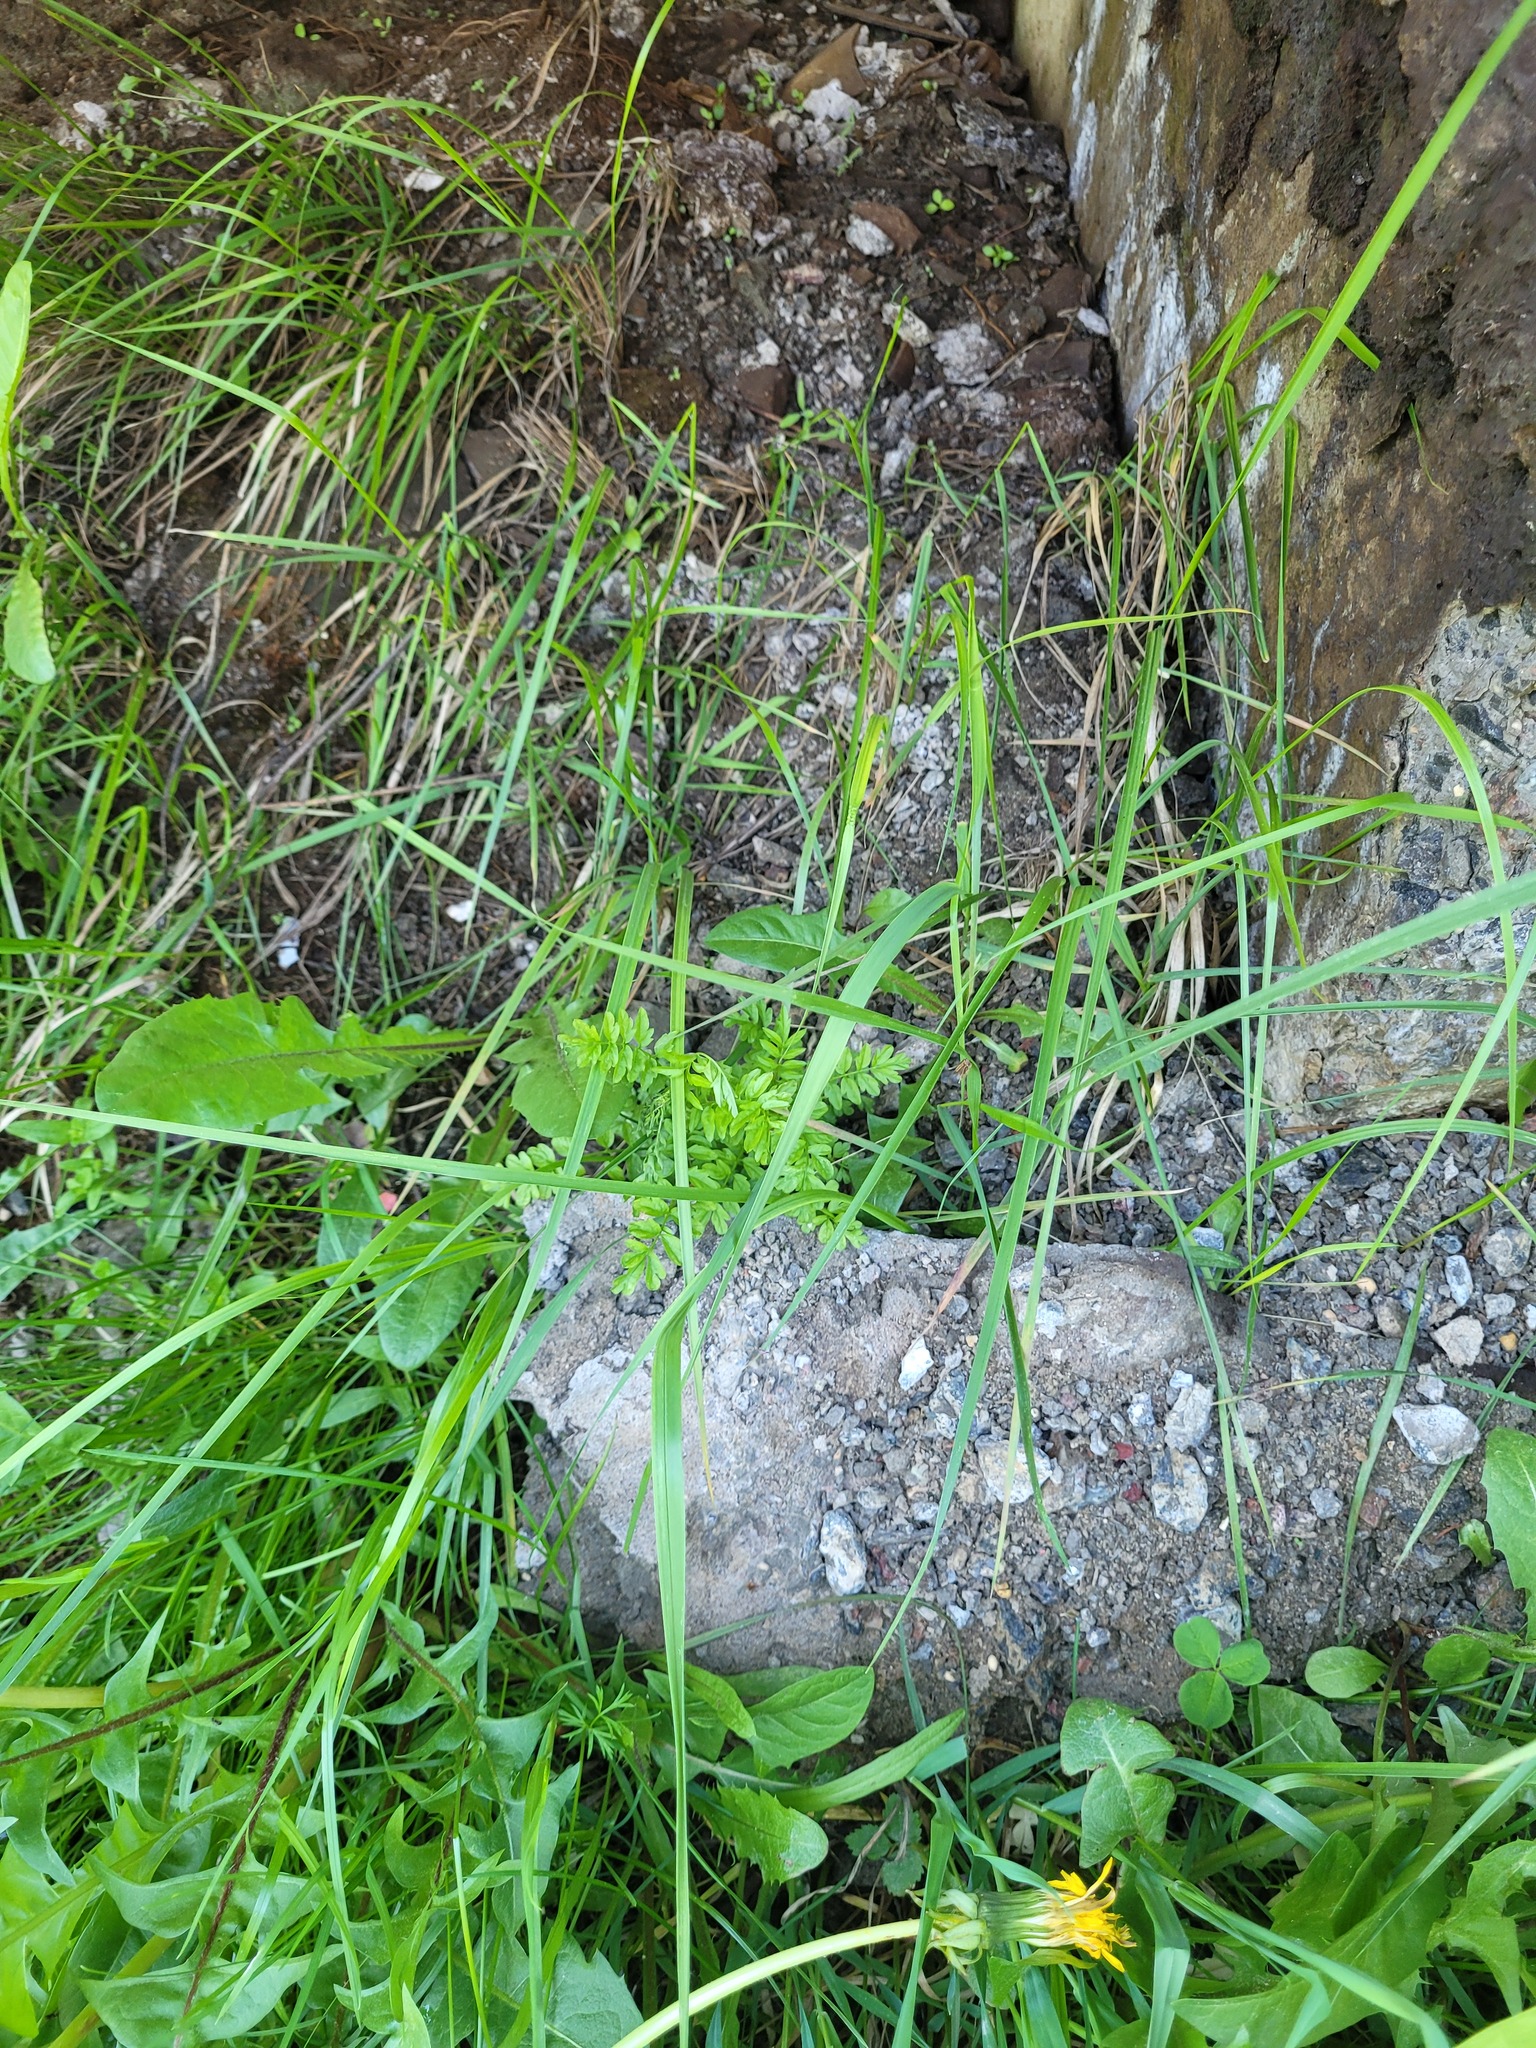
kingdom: Plantae
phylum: Tracheophyta
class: Magnoliopsida
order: Brassicales
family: Brassicaceae
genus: Cardamine
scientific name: Cardamine impatiens
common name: Narrow-leaved bitter-cress
